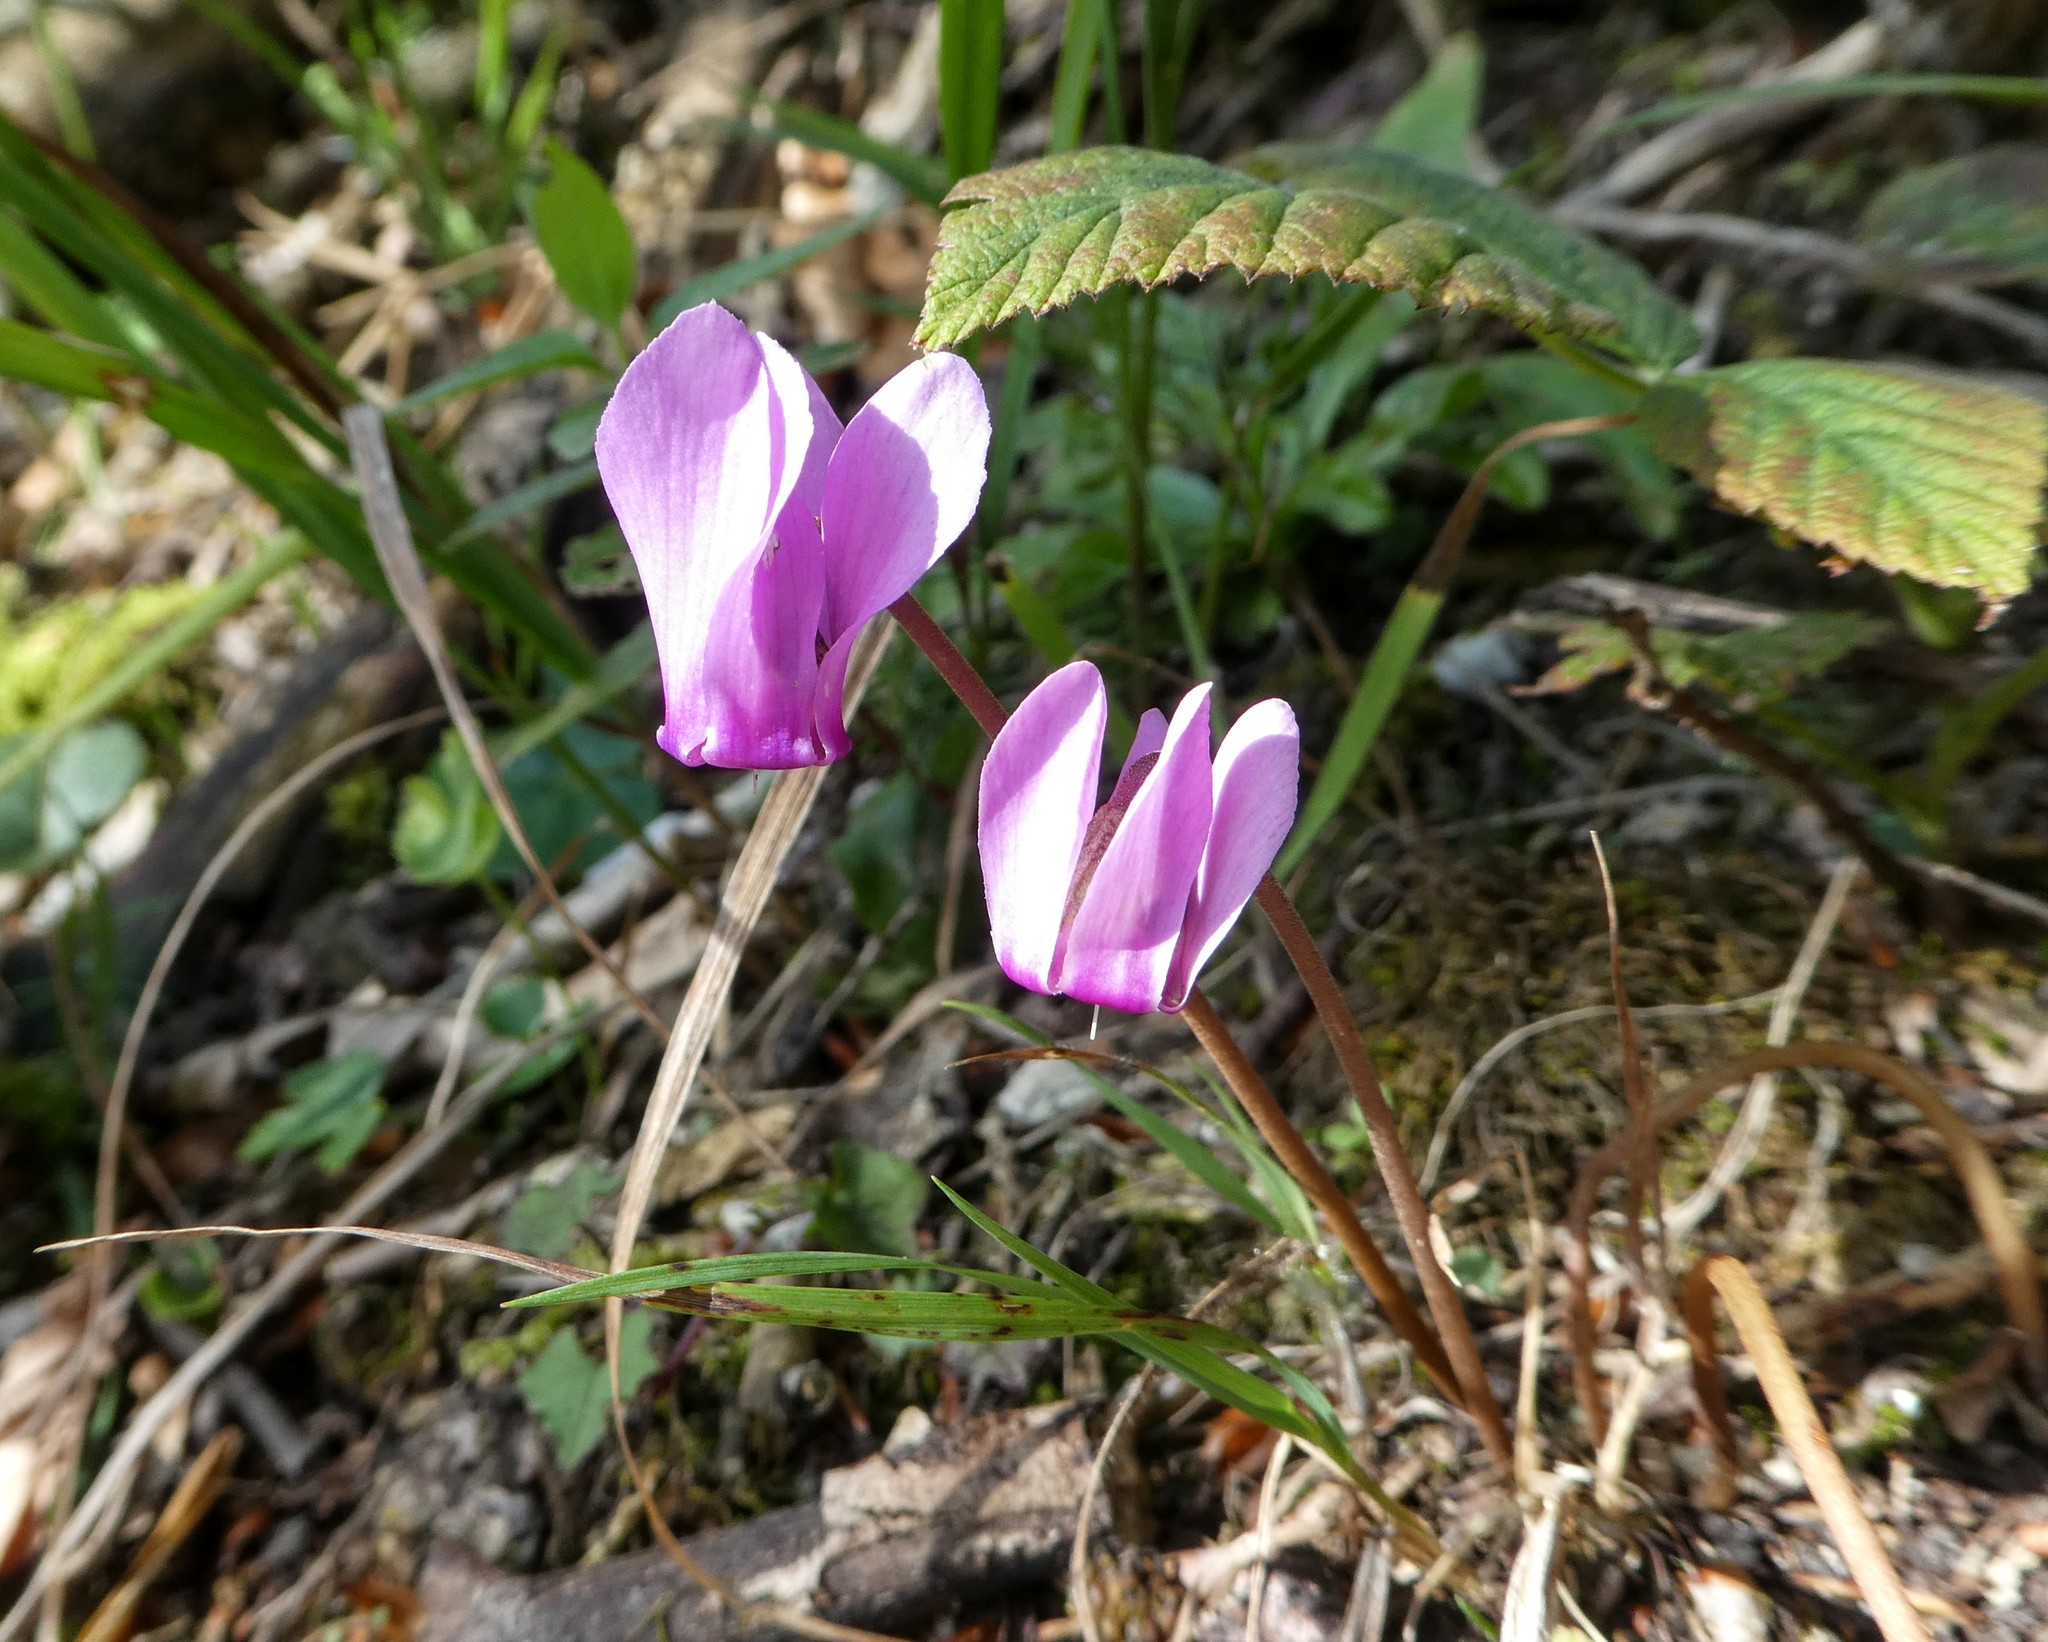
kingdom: Plantae
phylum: Tracheophyta
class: Magnoliopsida
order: Ericales
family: Primulaceae
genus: Cyclamen
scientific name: Cyclamen purpurascens
